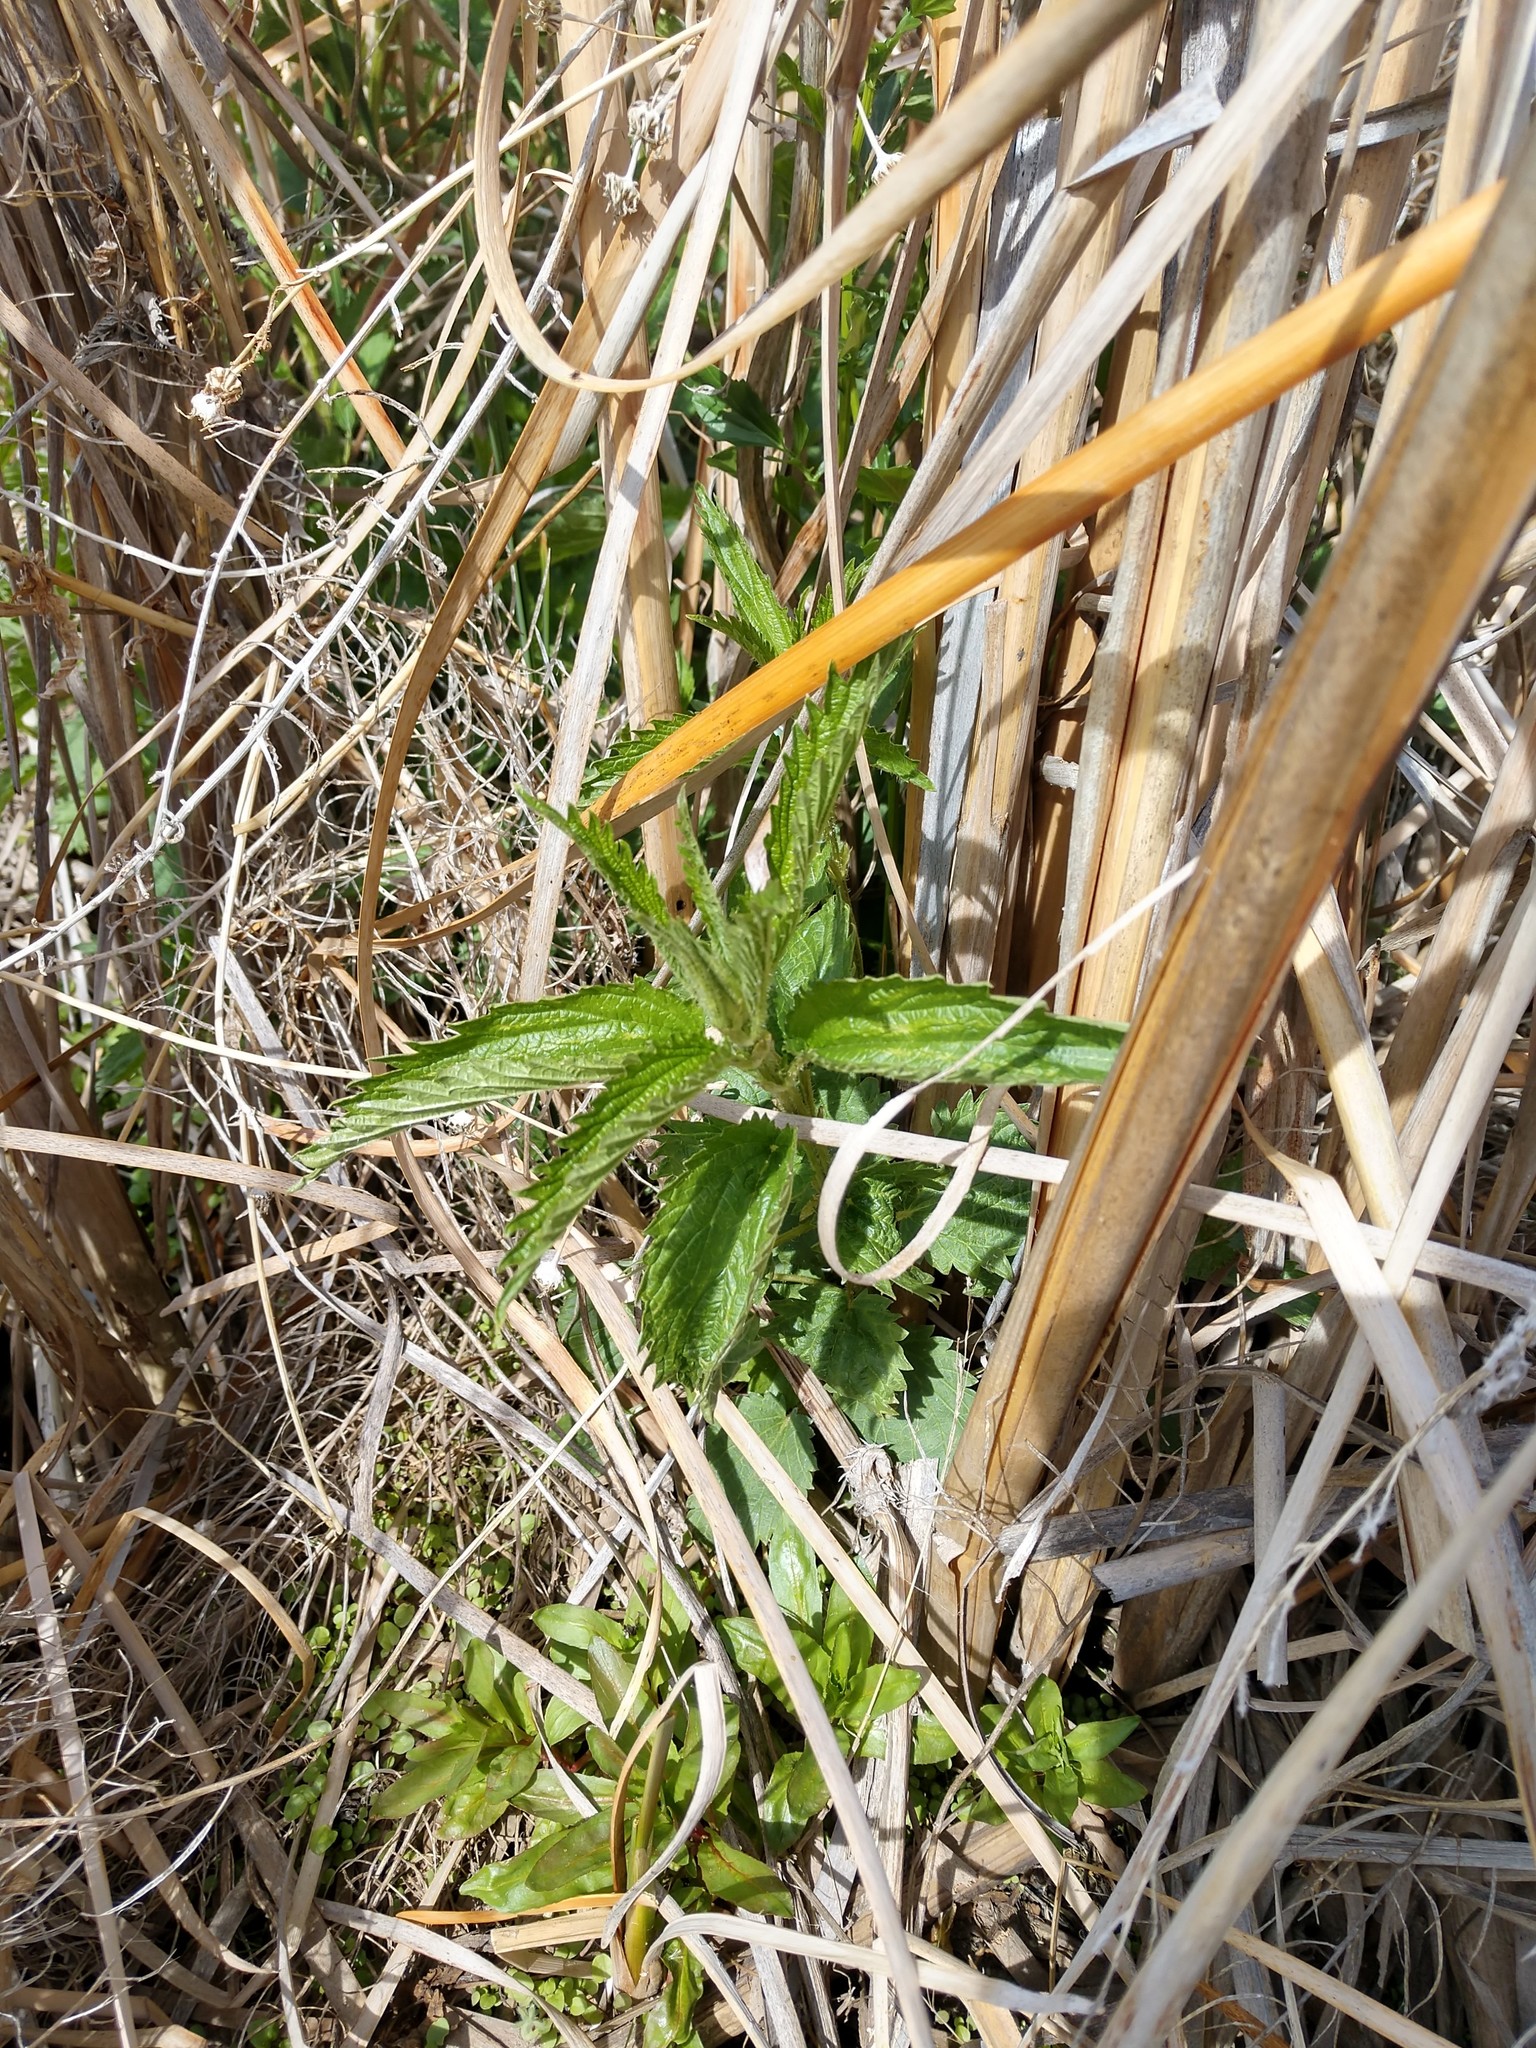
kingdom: Plantae
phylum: Tracheophyta
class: Magnoliopsida
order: Rosales
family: Urticaceae
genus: Urtica
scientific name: Urtica dioica
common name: Common nettle
